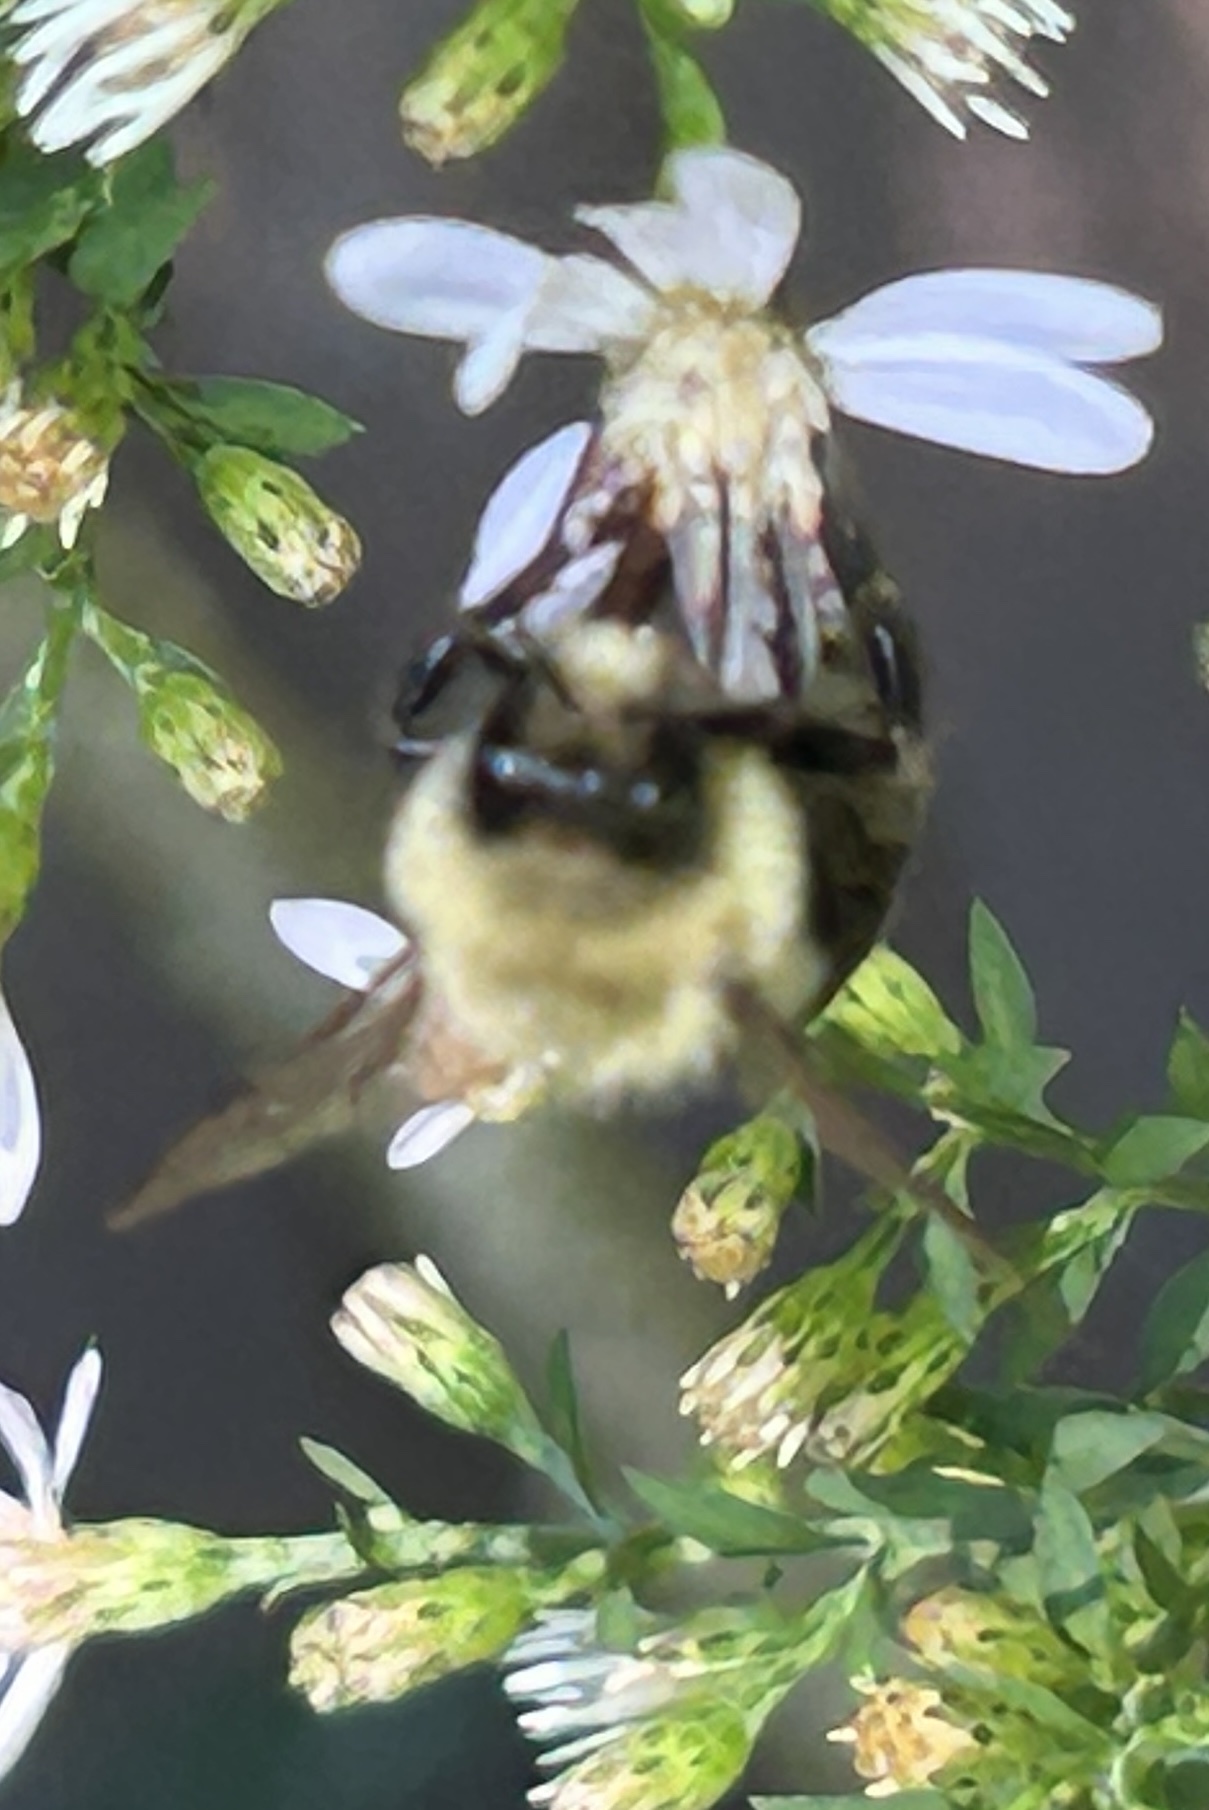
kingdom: Animalia
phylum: Arthropoda
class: Insecta
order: Hymenoptera
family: Apidae
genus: Bombus
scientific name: Bombus impatiens
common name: Common eastern bumble bee
